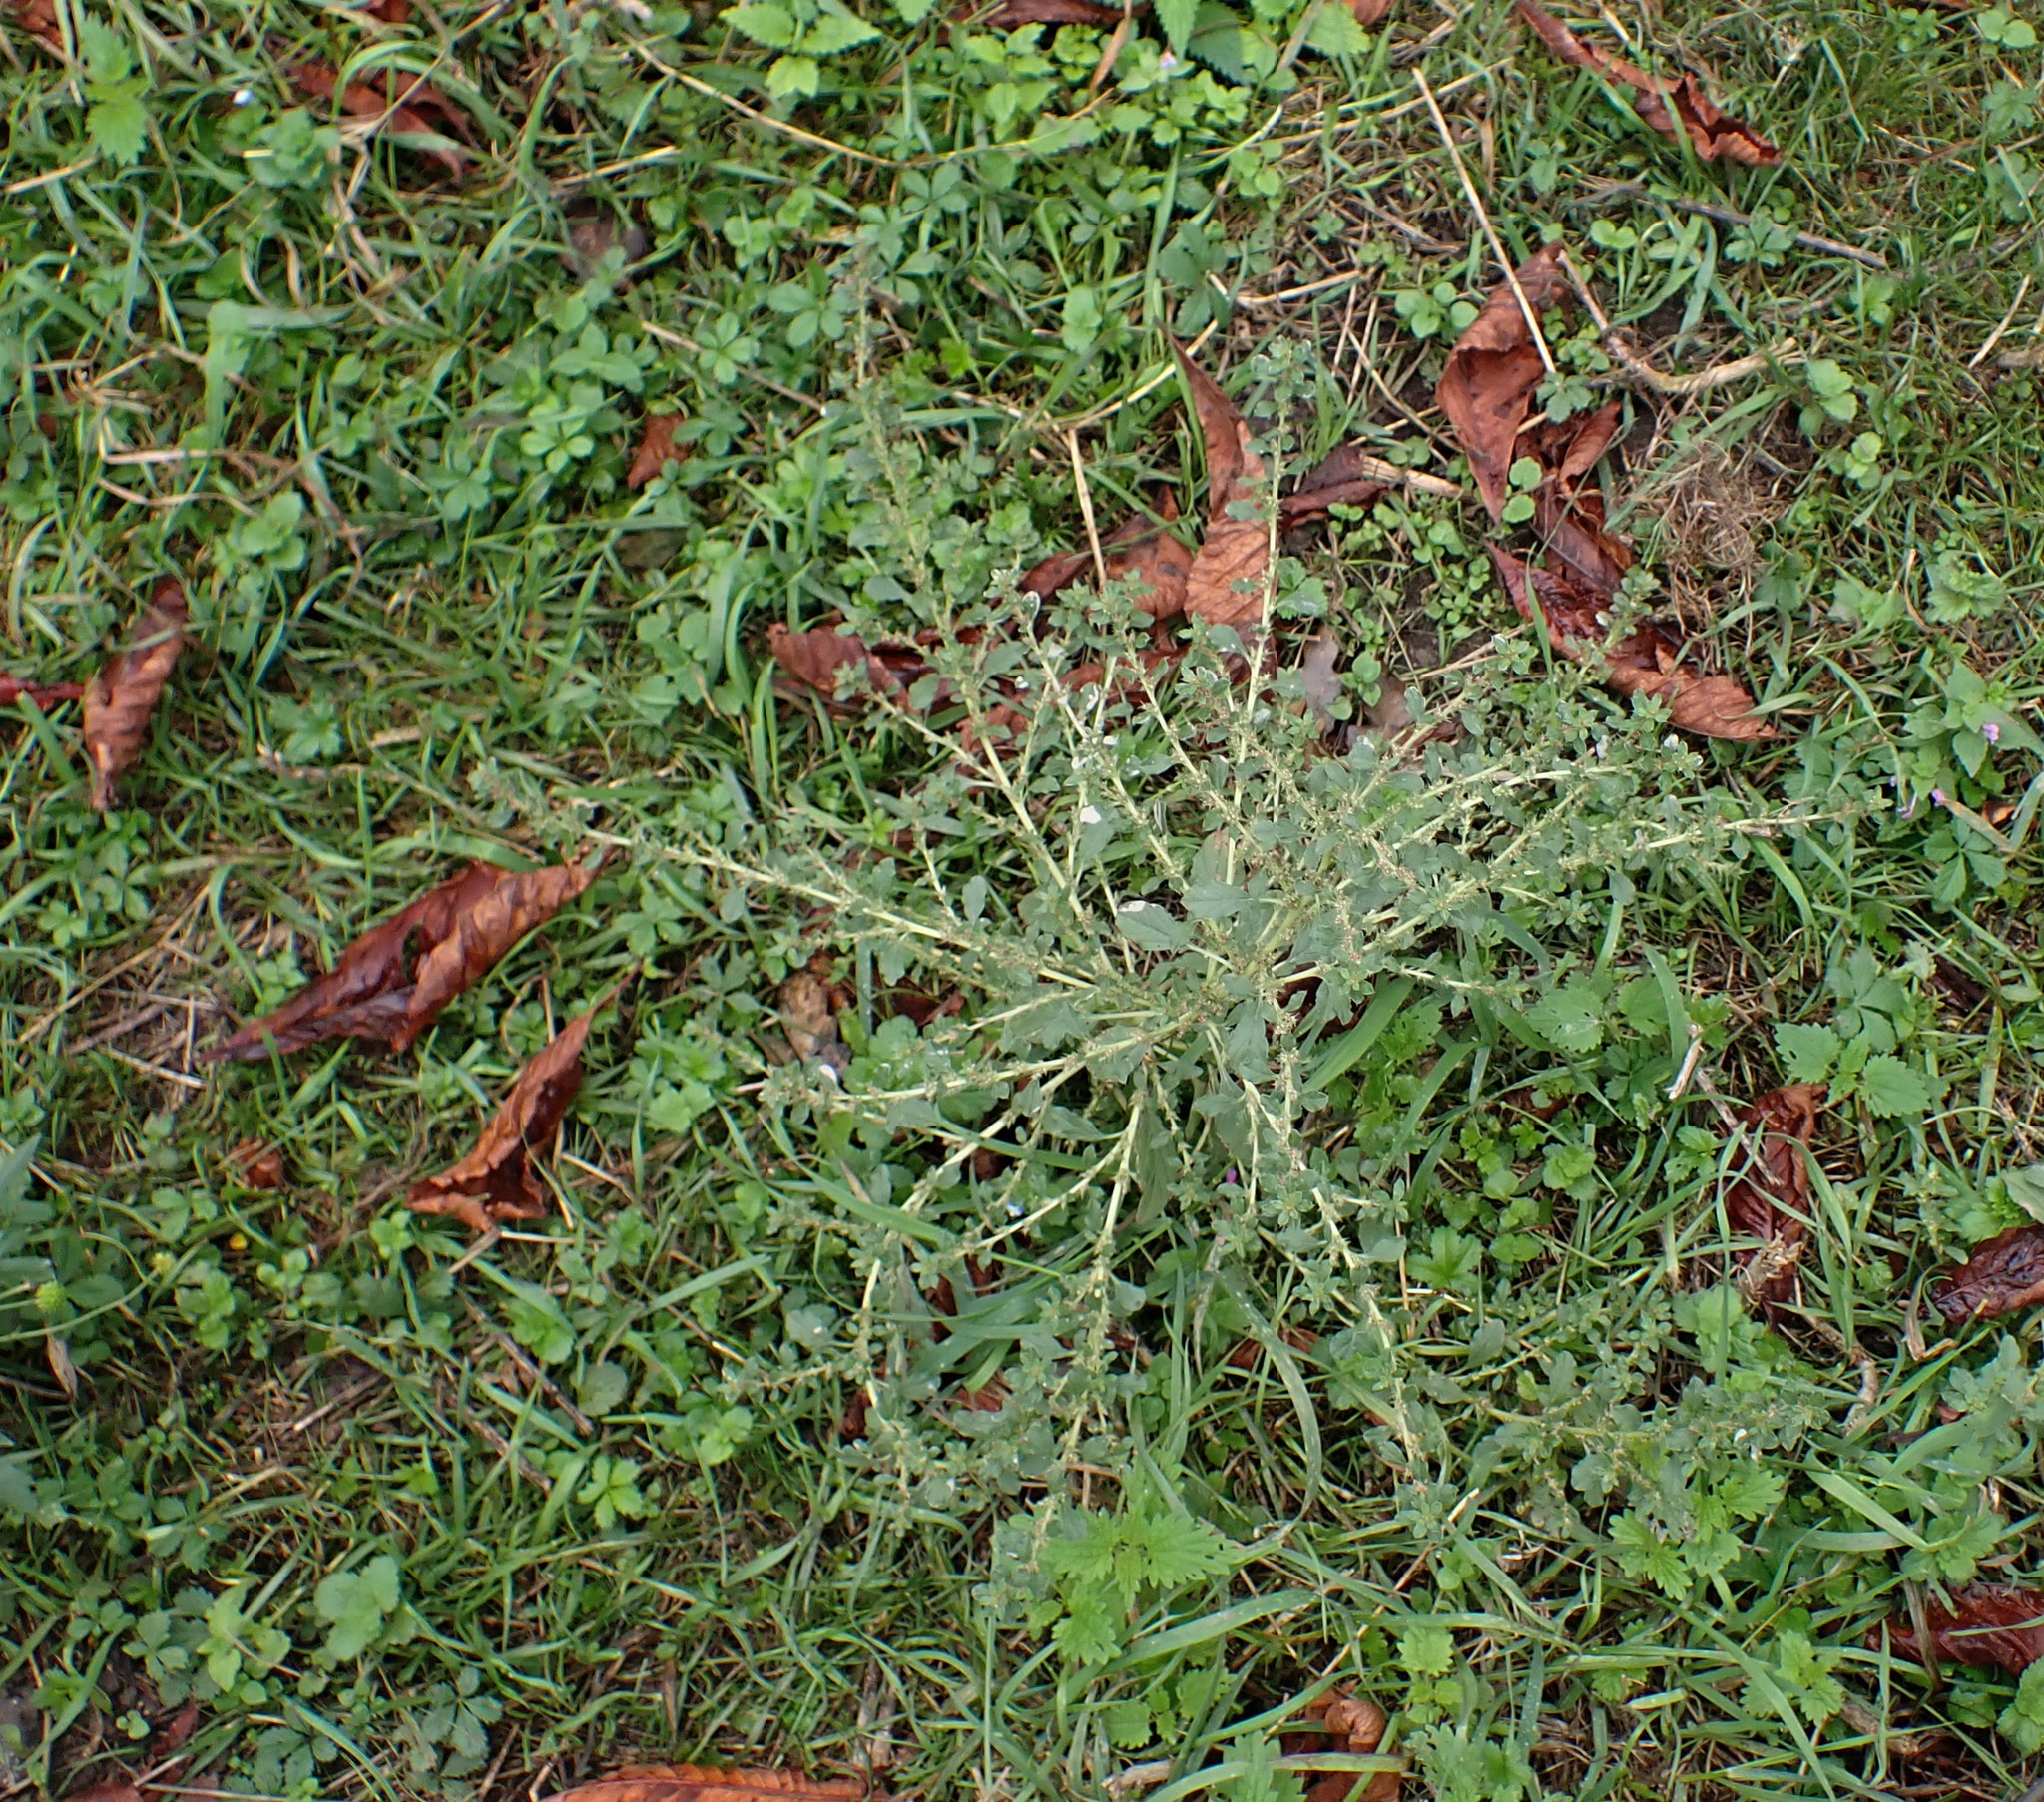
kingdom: Plantae
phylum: Tracheophyta
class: Magnoliopsida
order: Caryophyllales
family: Amaranthaceae
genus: Amaranthus
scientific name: Amaranthus albus
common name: White pigweed
